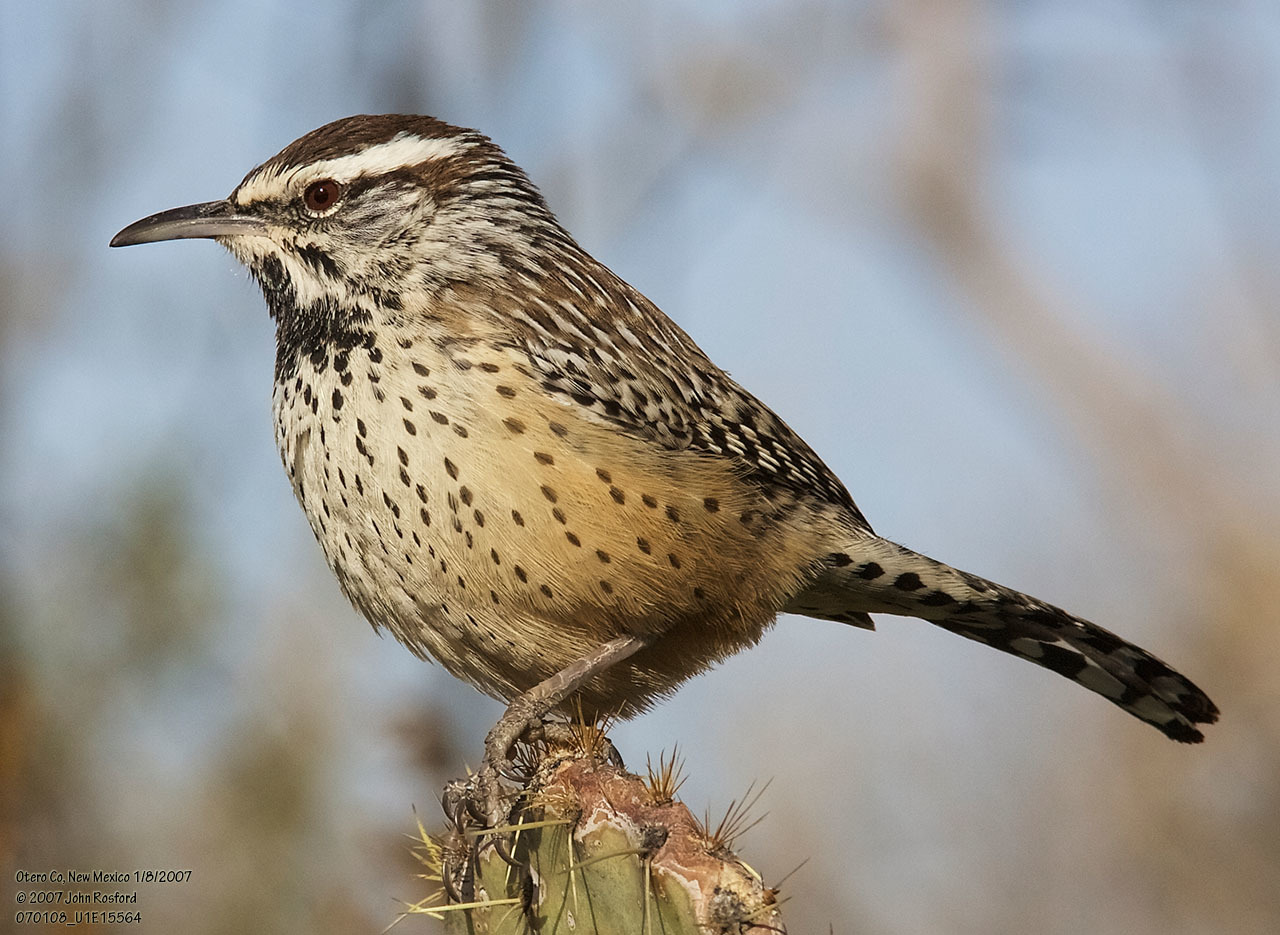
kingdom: Animalia
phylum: Chordata
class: Aves
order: Passeriformes
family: Troglodytidae
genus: Campylorhynchus
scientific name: Campylorhynchus brunneicapillus
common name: Cactus wren
